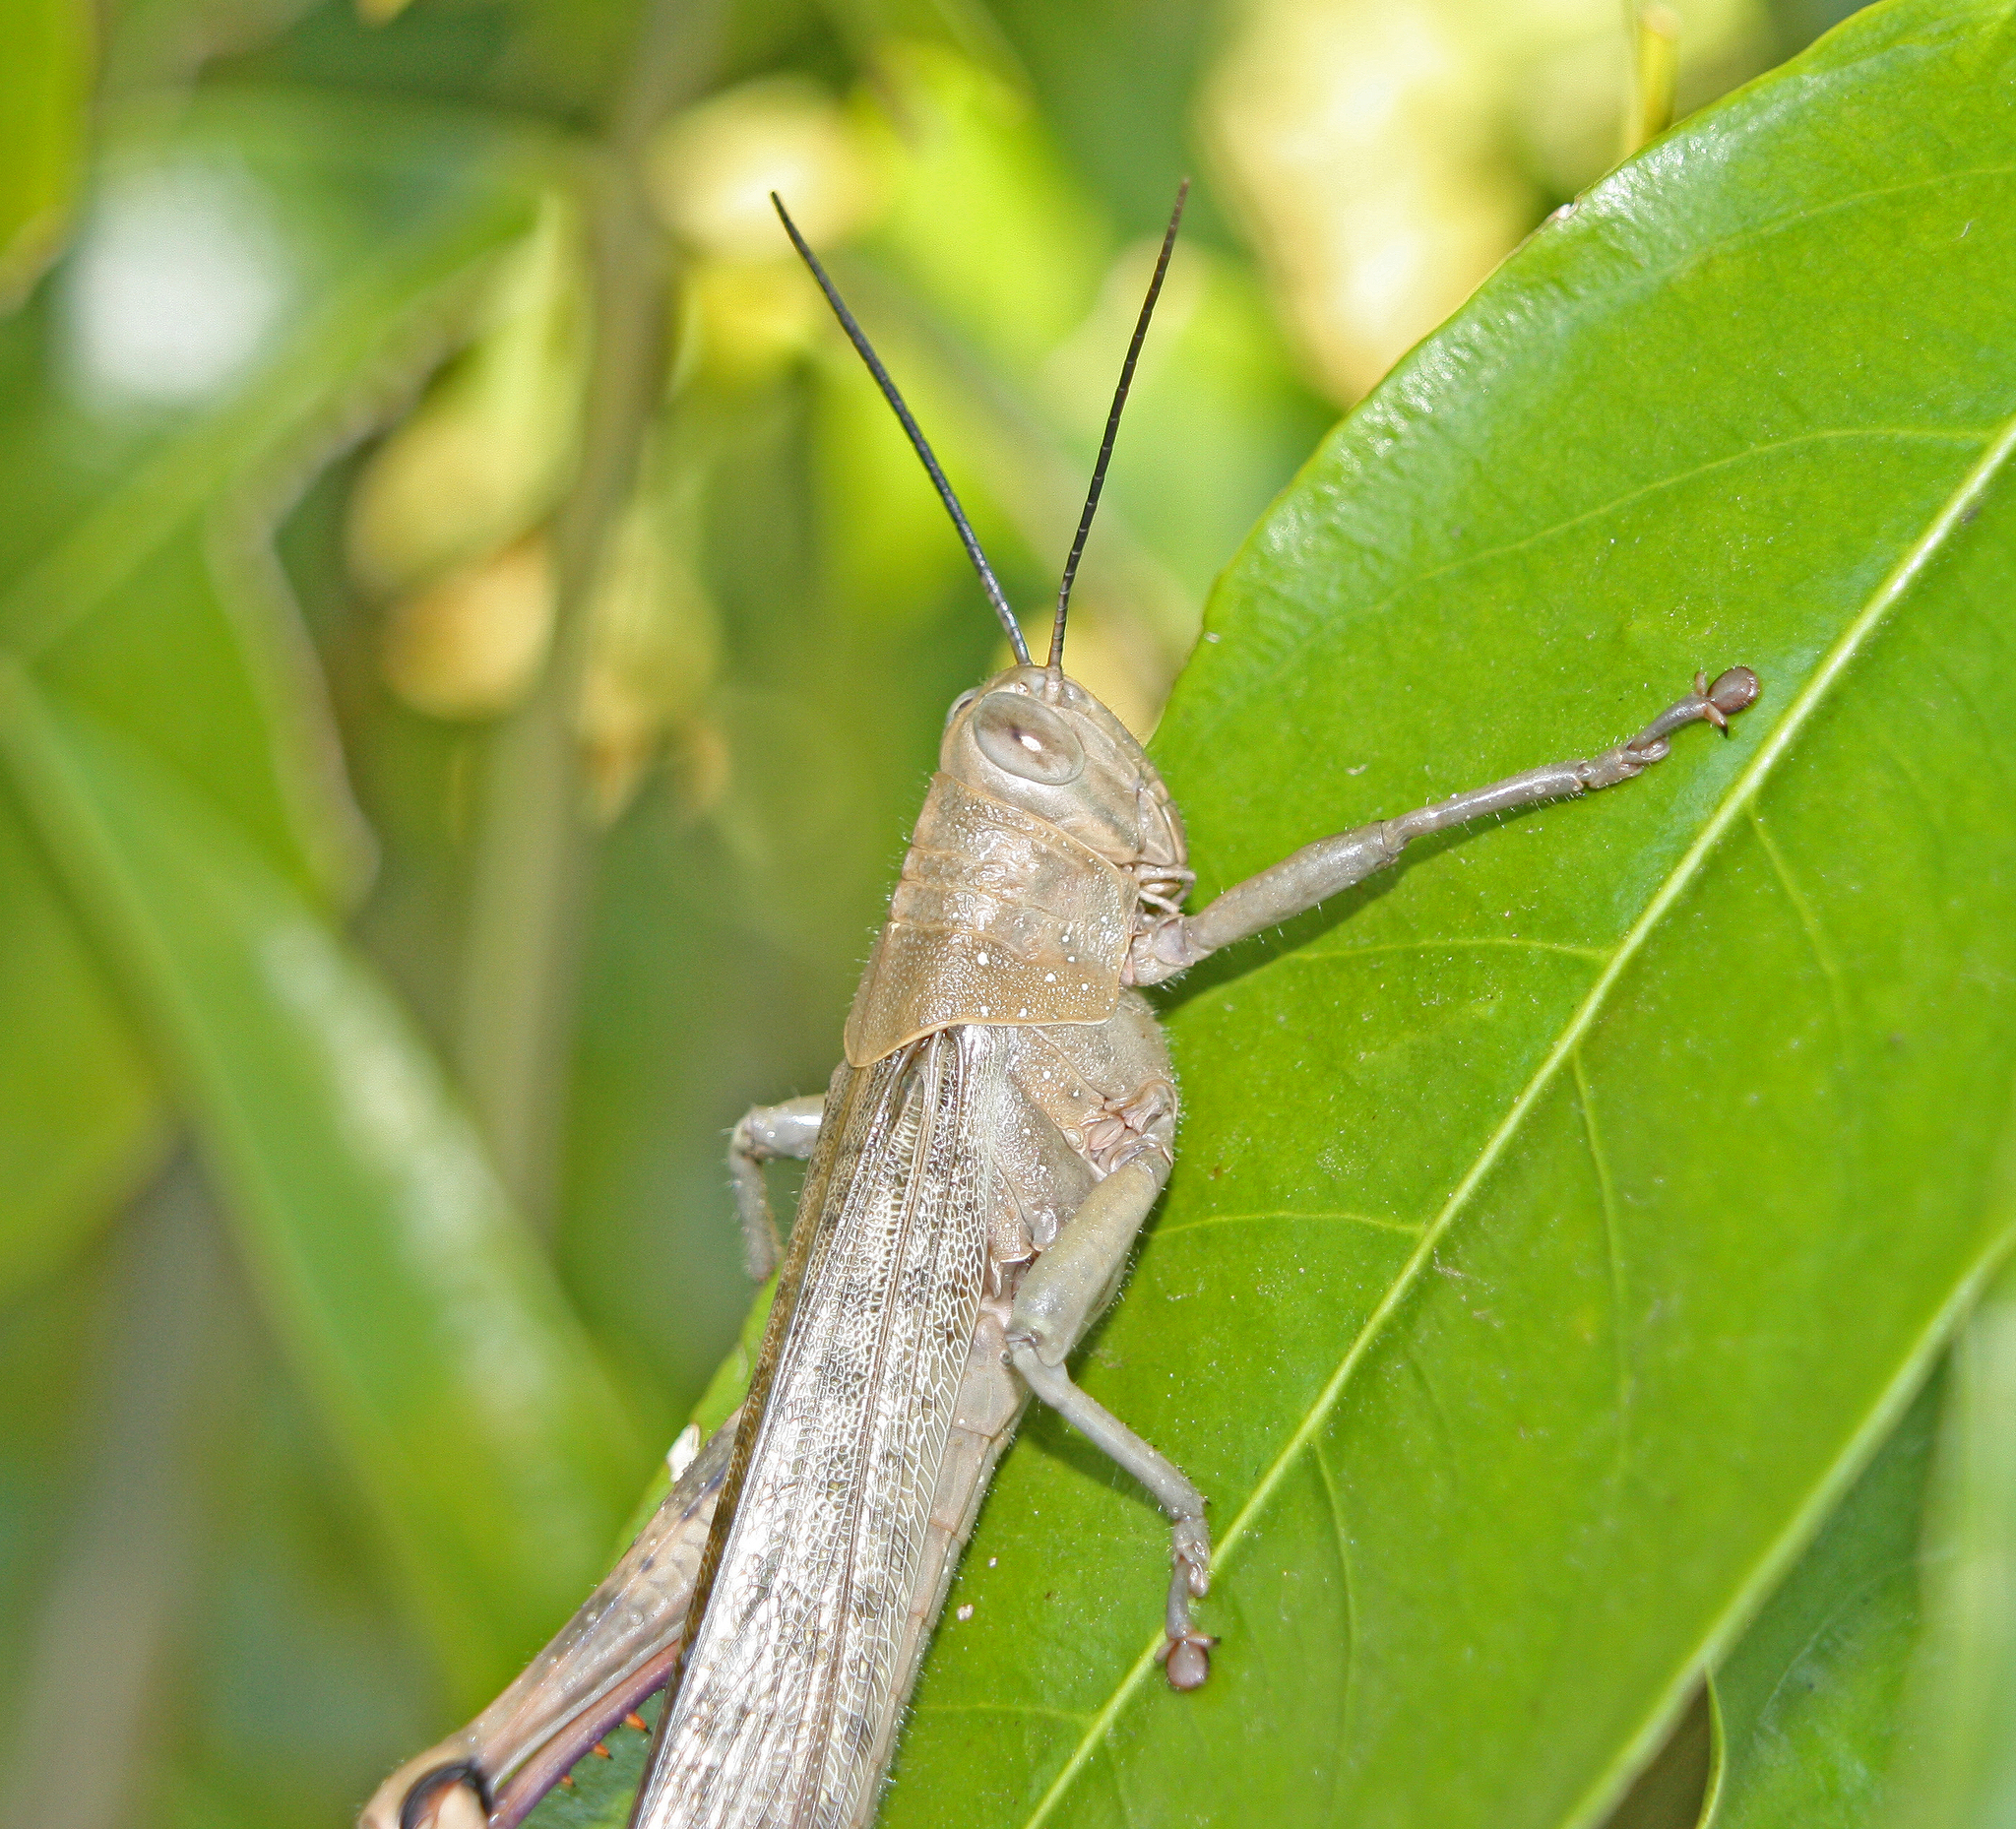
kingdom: Animalia
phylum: Arthropoda
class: Insecta
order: Orthoptera
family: Acrididae
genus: Valanga
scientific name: Valanga irregularis
